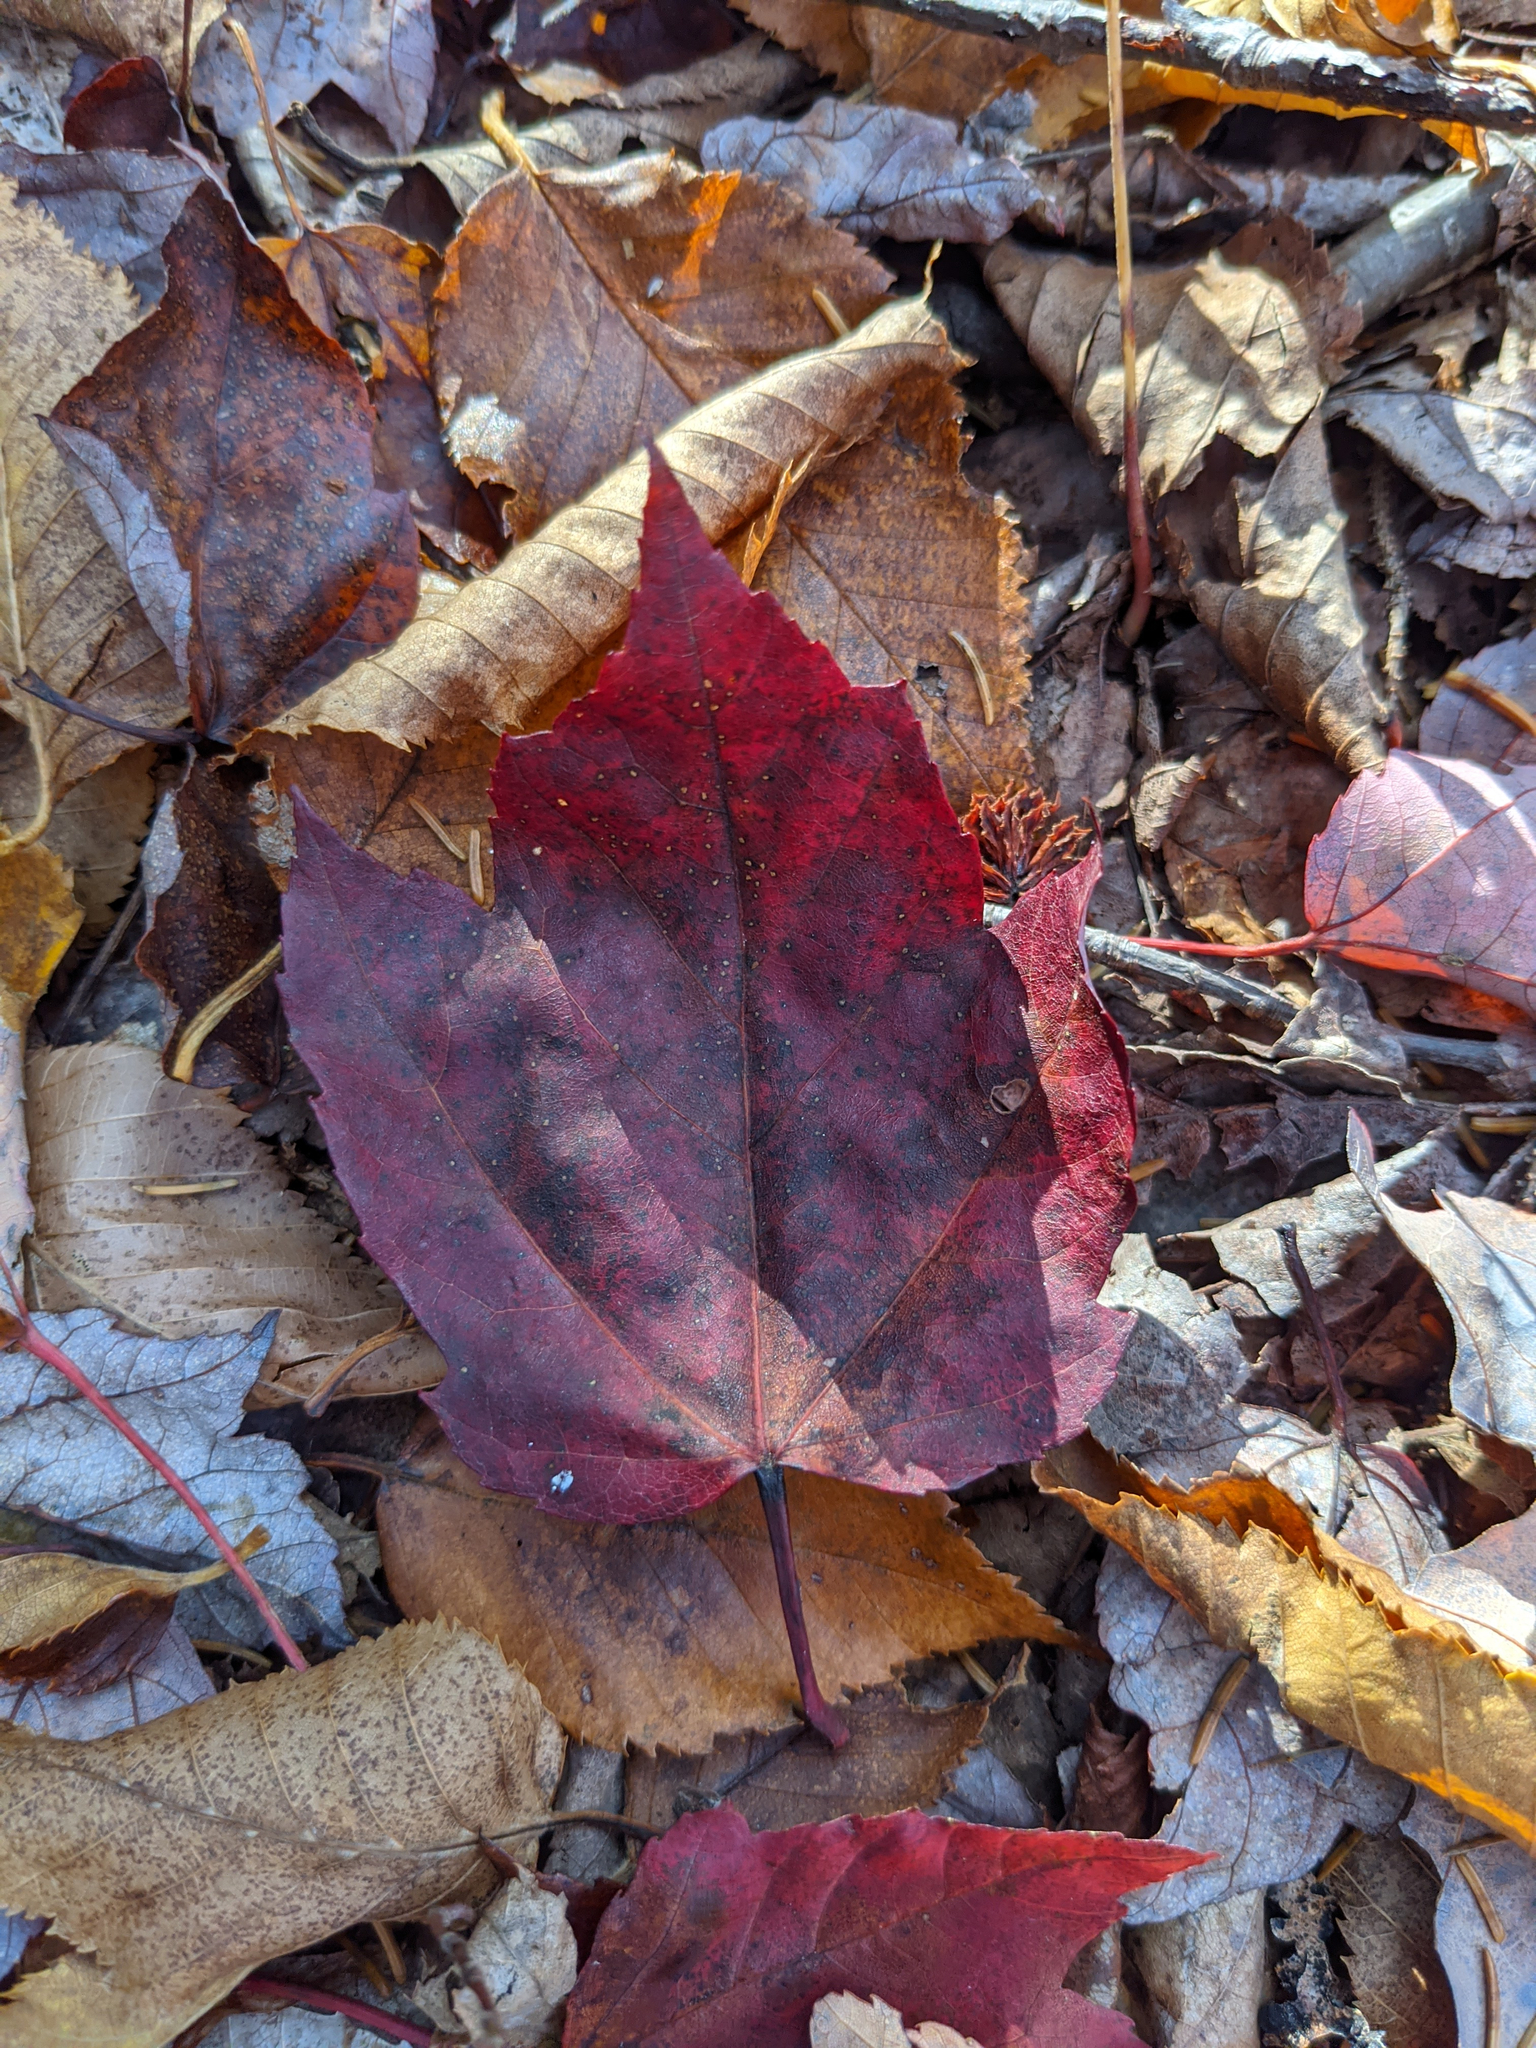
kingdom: Plantae
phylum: Tracheophyta
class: Magnoliopsida
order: Sapindales
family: Sapindaceae
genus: Acer
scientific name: Acer rubrum
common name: Red maple
